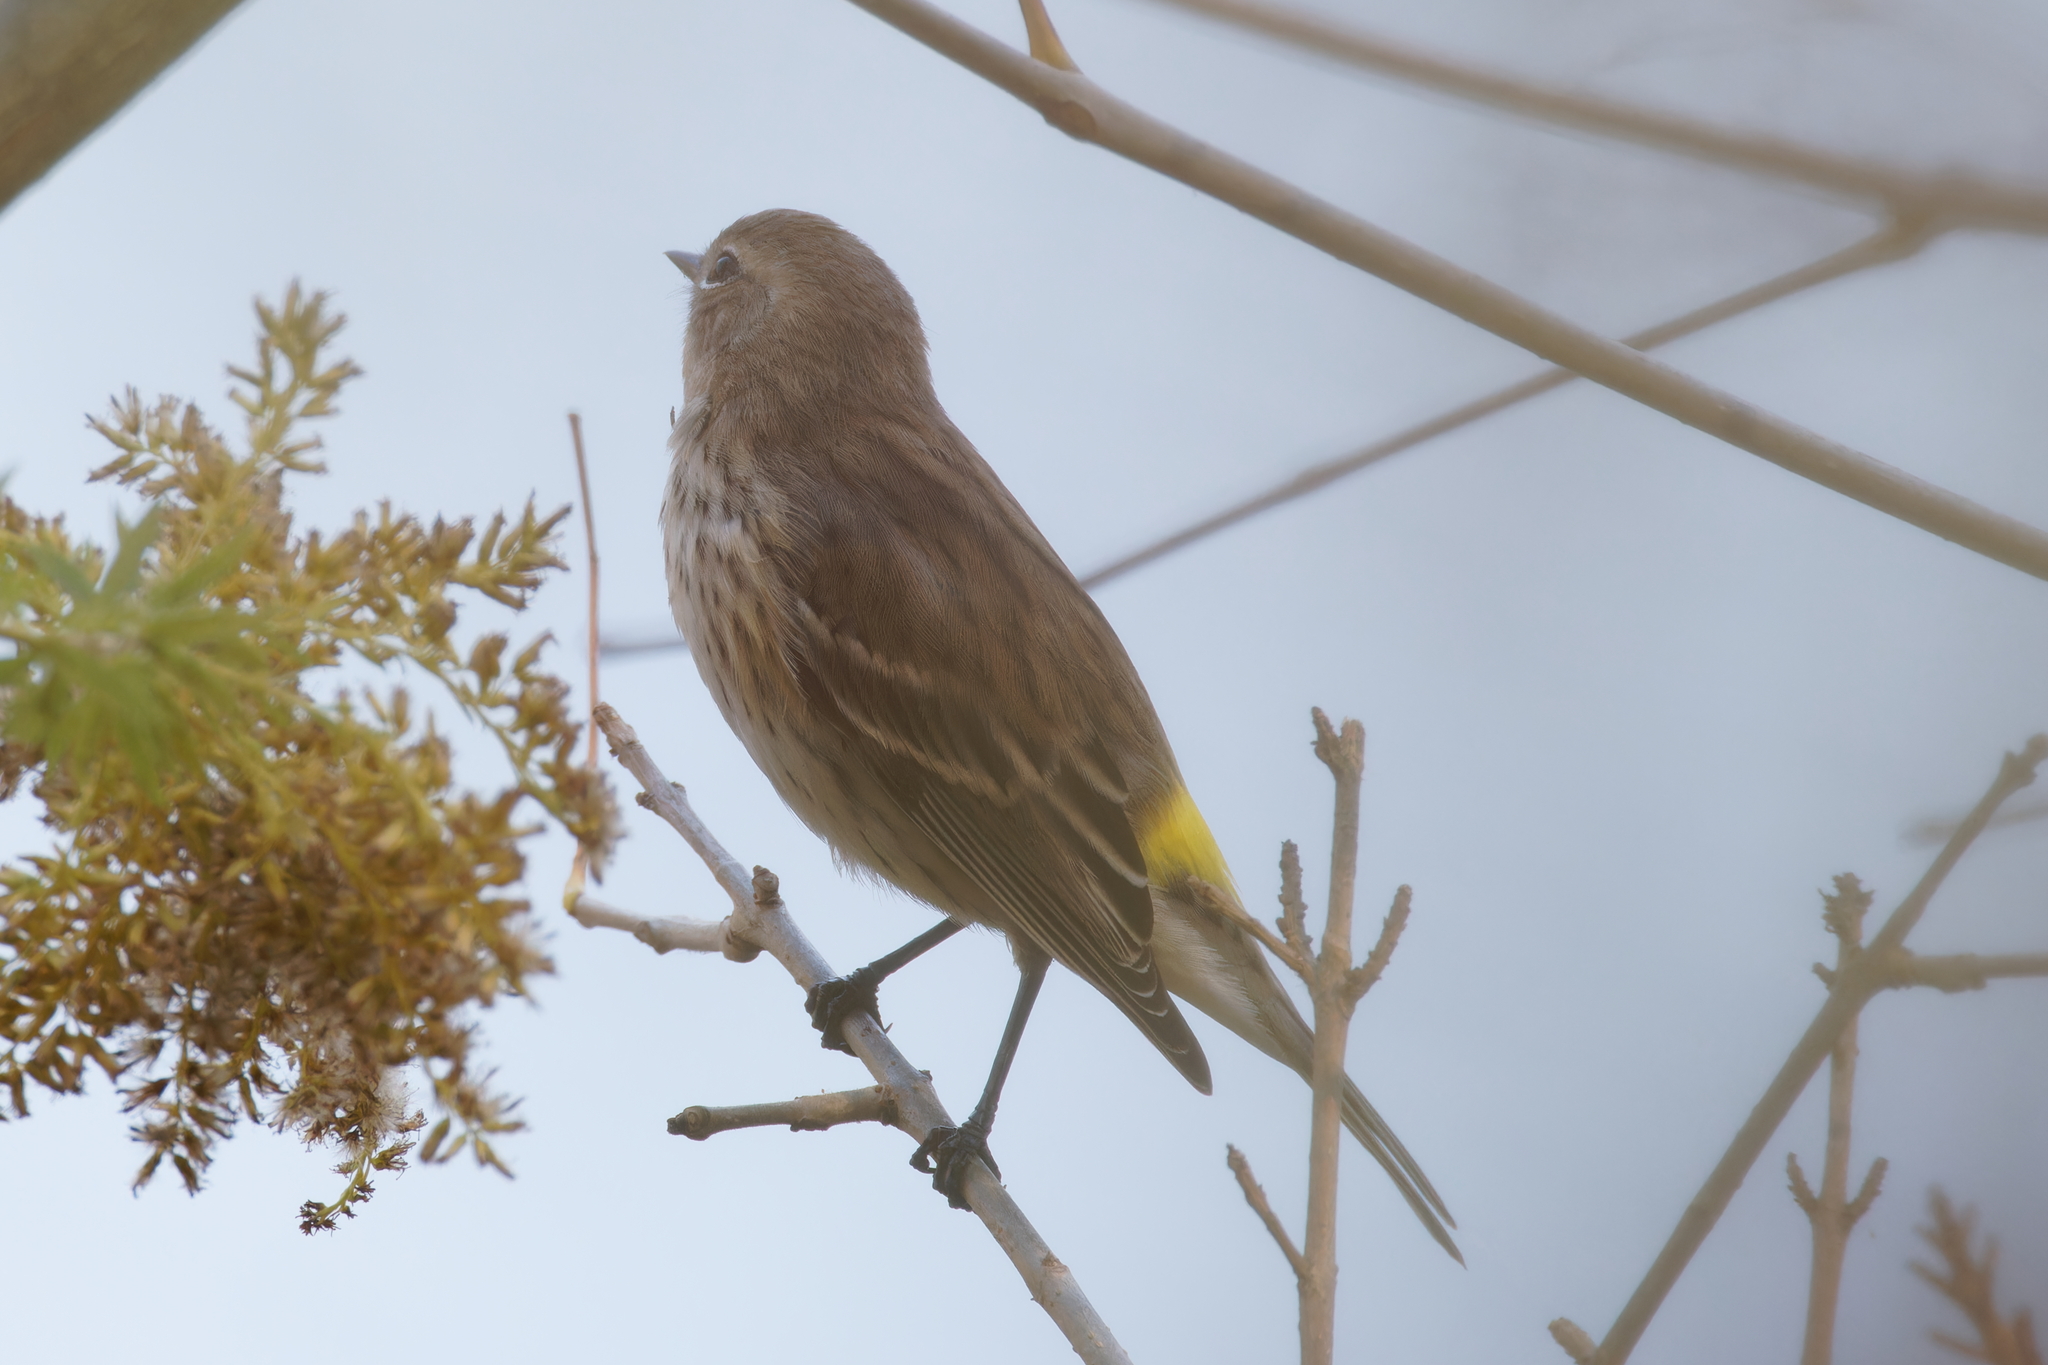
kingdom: Animalia
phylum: Chordata
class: Aves
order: Passeriformes
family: Parulidae
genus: Setophaga
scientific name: Setophaga coronata
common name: Myrtle warbler
